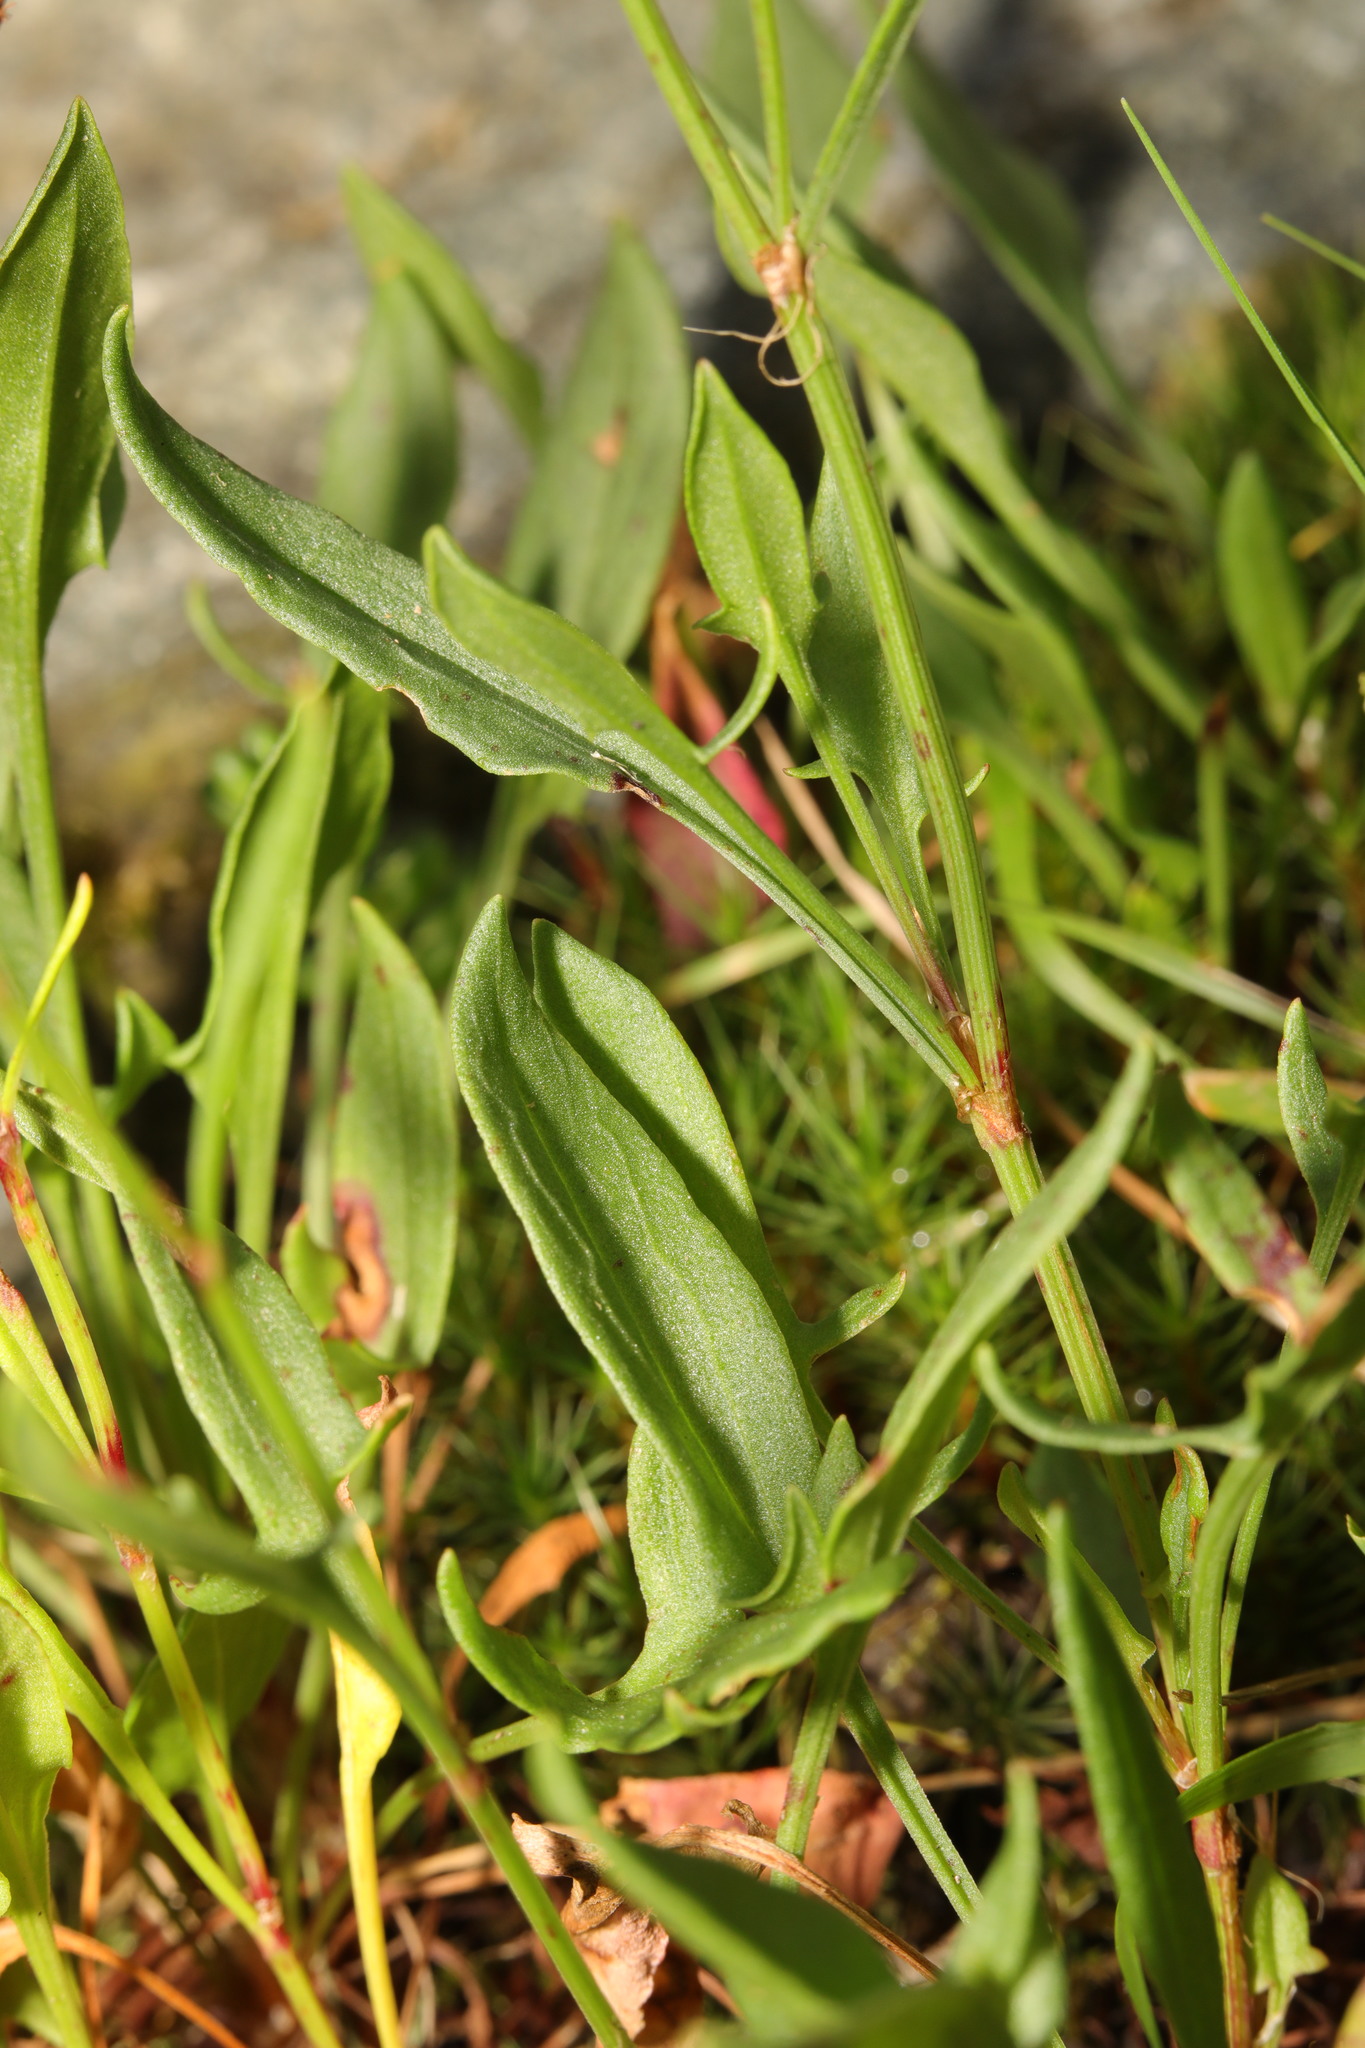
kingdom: Plantae
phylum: Tracheophyta
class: Magnoliopsida
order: Caryophyllales
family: Polygonaceae
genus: Rumex
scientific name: Rumex acetosella
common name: Common sheep sorrel
